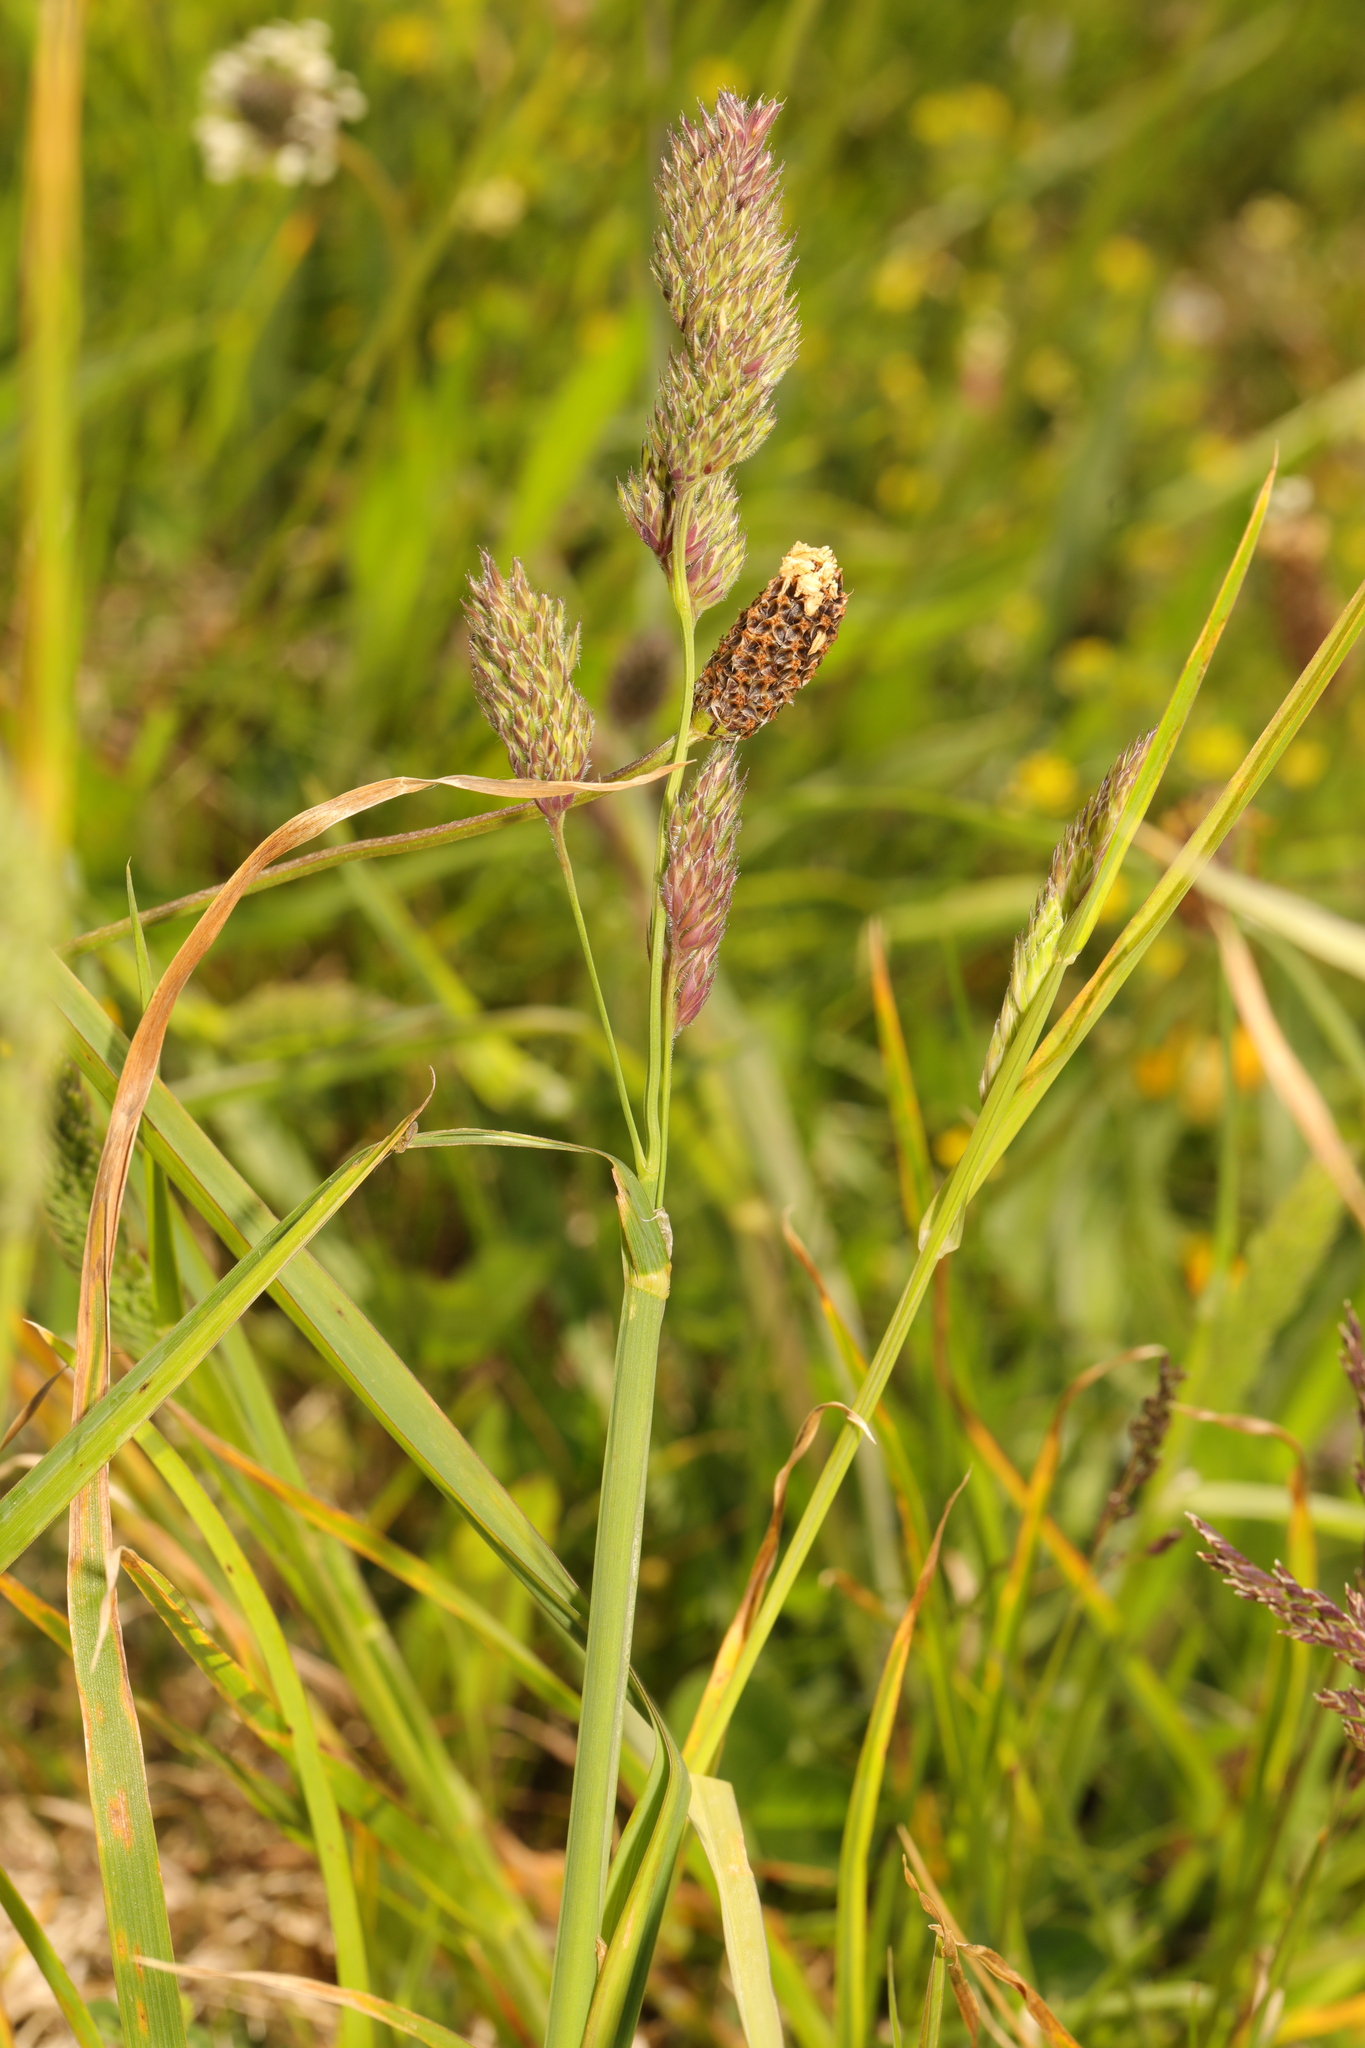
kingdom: Plantae
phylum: Tracheophyta
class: Liliopsida
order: Poales
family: Poaceae
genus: Dactylis
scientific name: Dactylis glomerata
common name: Orchardgrass
